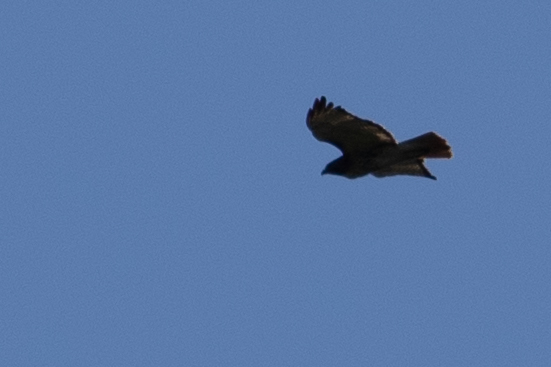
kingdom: Animalia
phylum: Chordata
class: Aves
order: Accipitriformes
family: Accipitridae
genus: Buteo
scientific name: Buteo jamaicensis
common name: Red-tailed hawk
